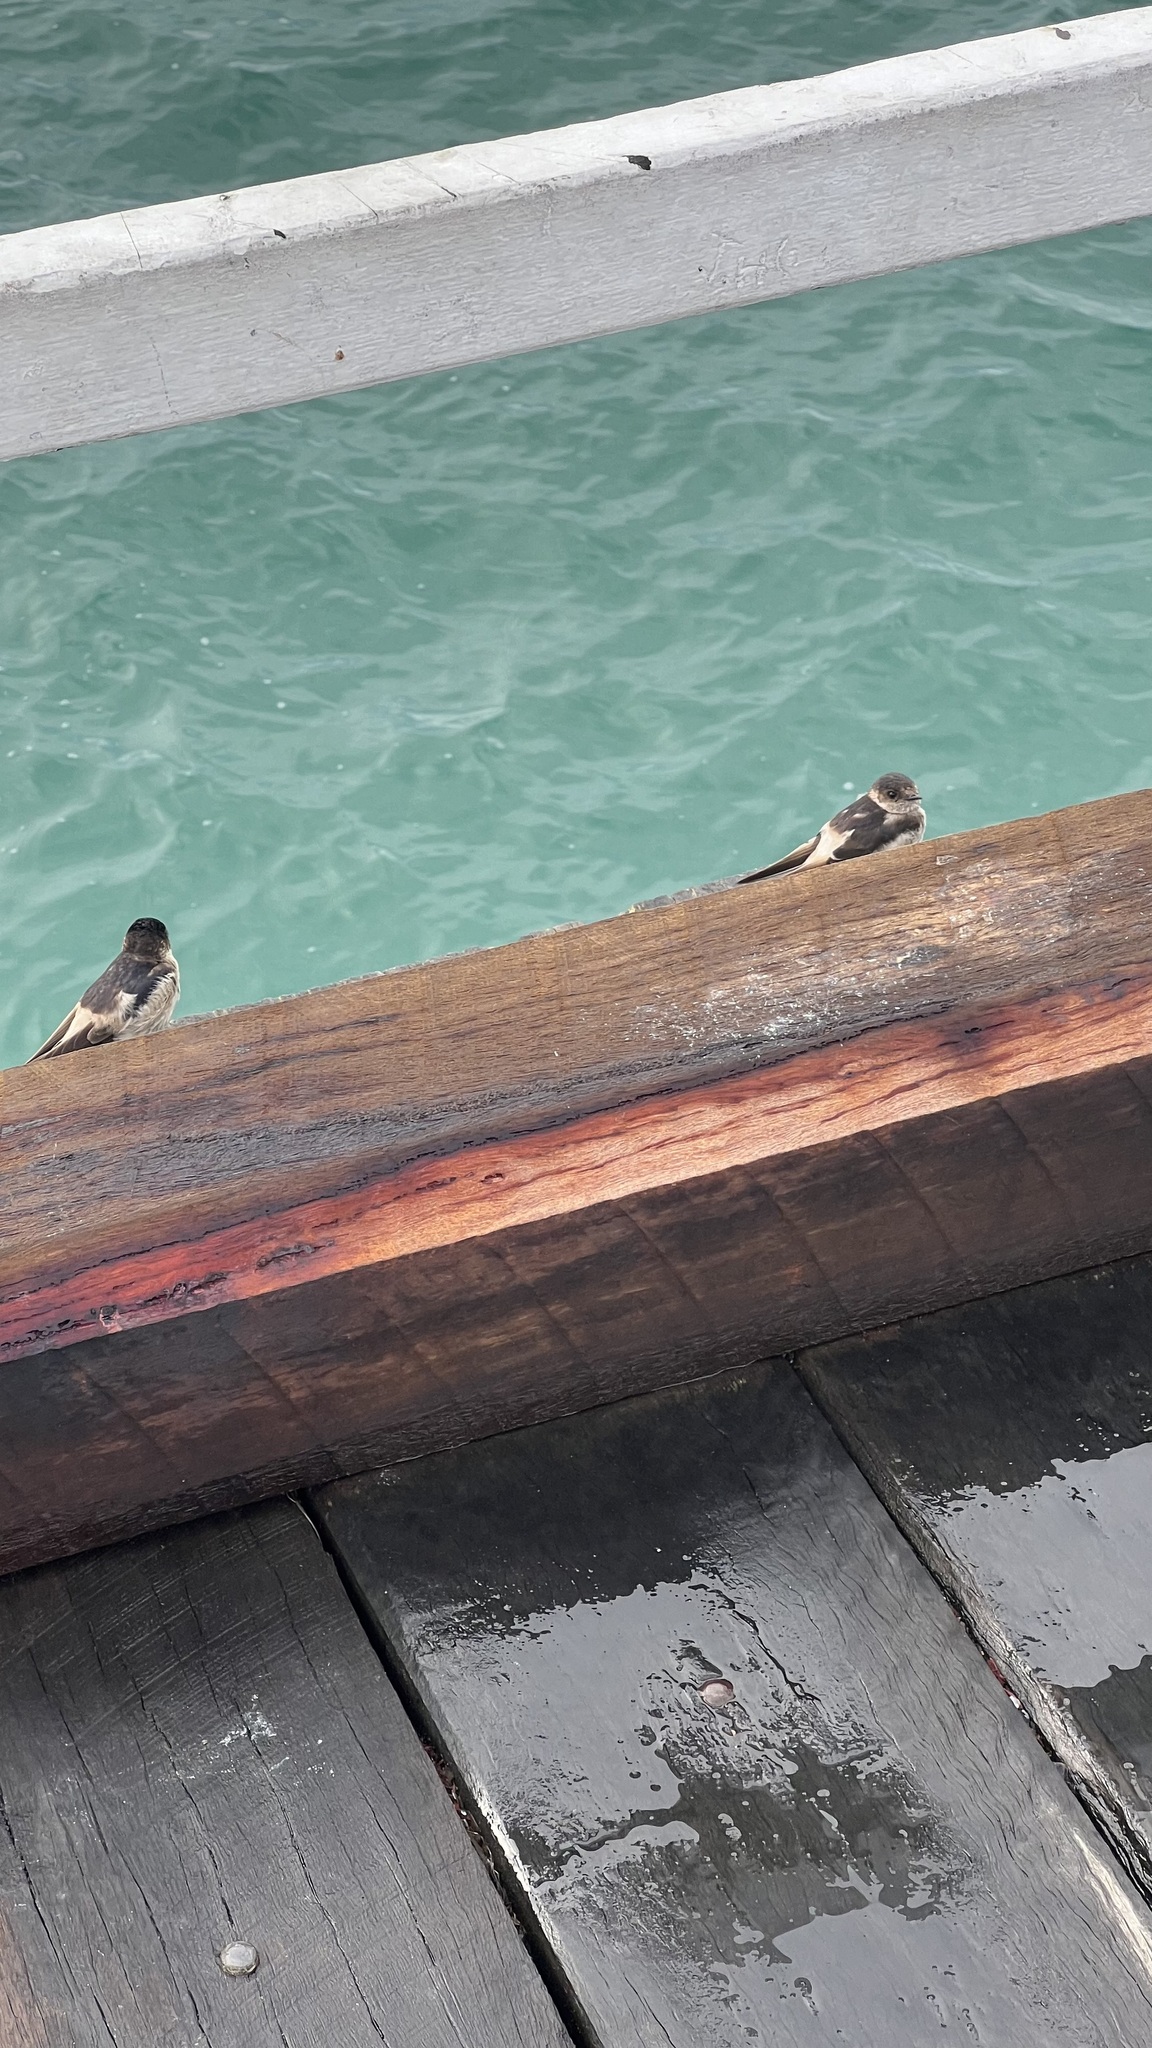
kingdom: Animalia
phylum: Chordata
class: Aves
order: Passeriformes
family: Hirundinidae
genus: Petrochelidon
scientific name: Petrochelidon nigricans
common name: Tree martin
